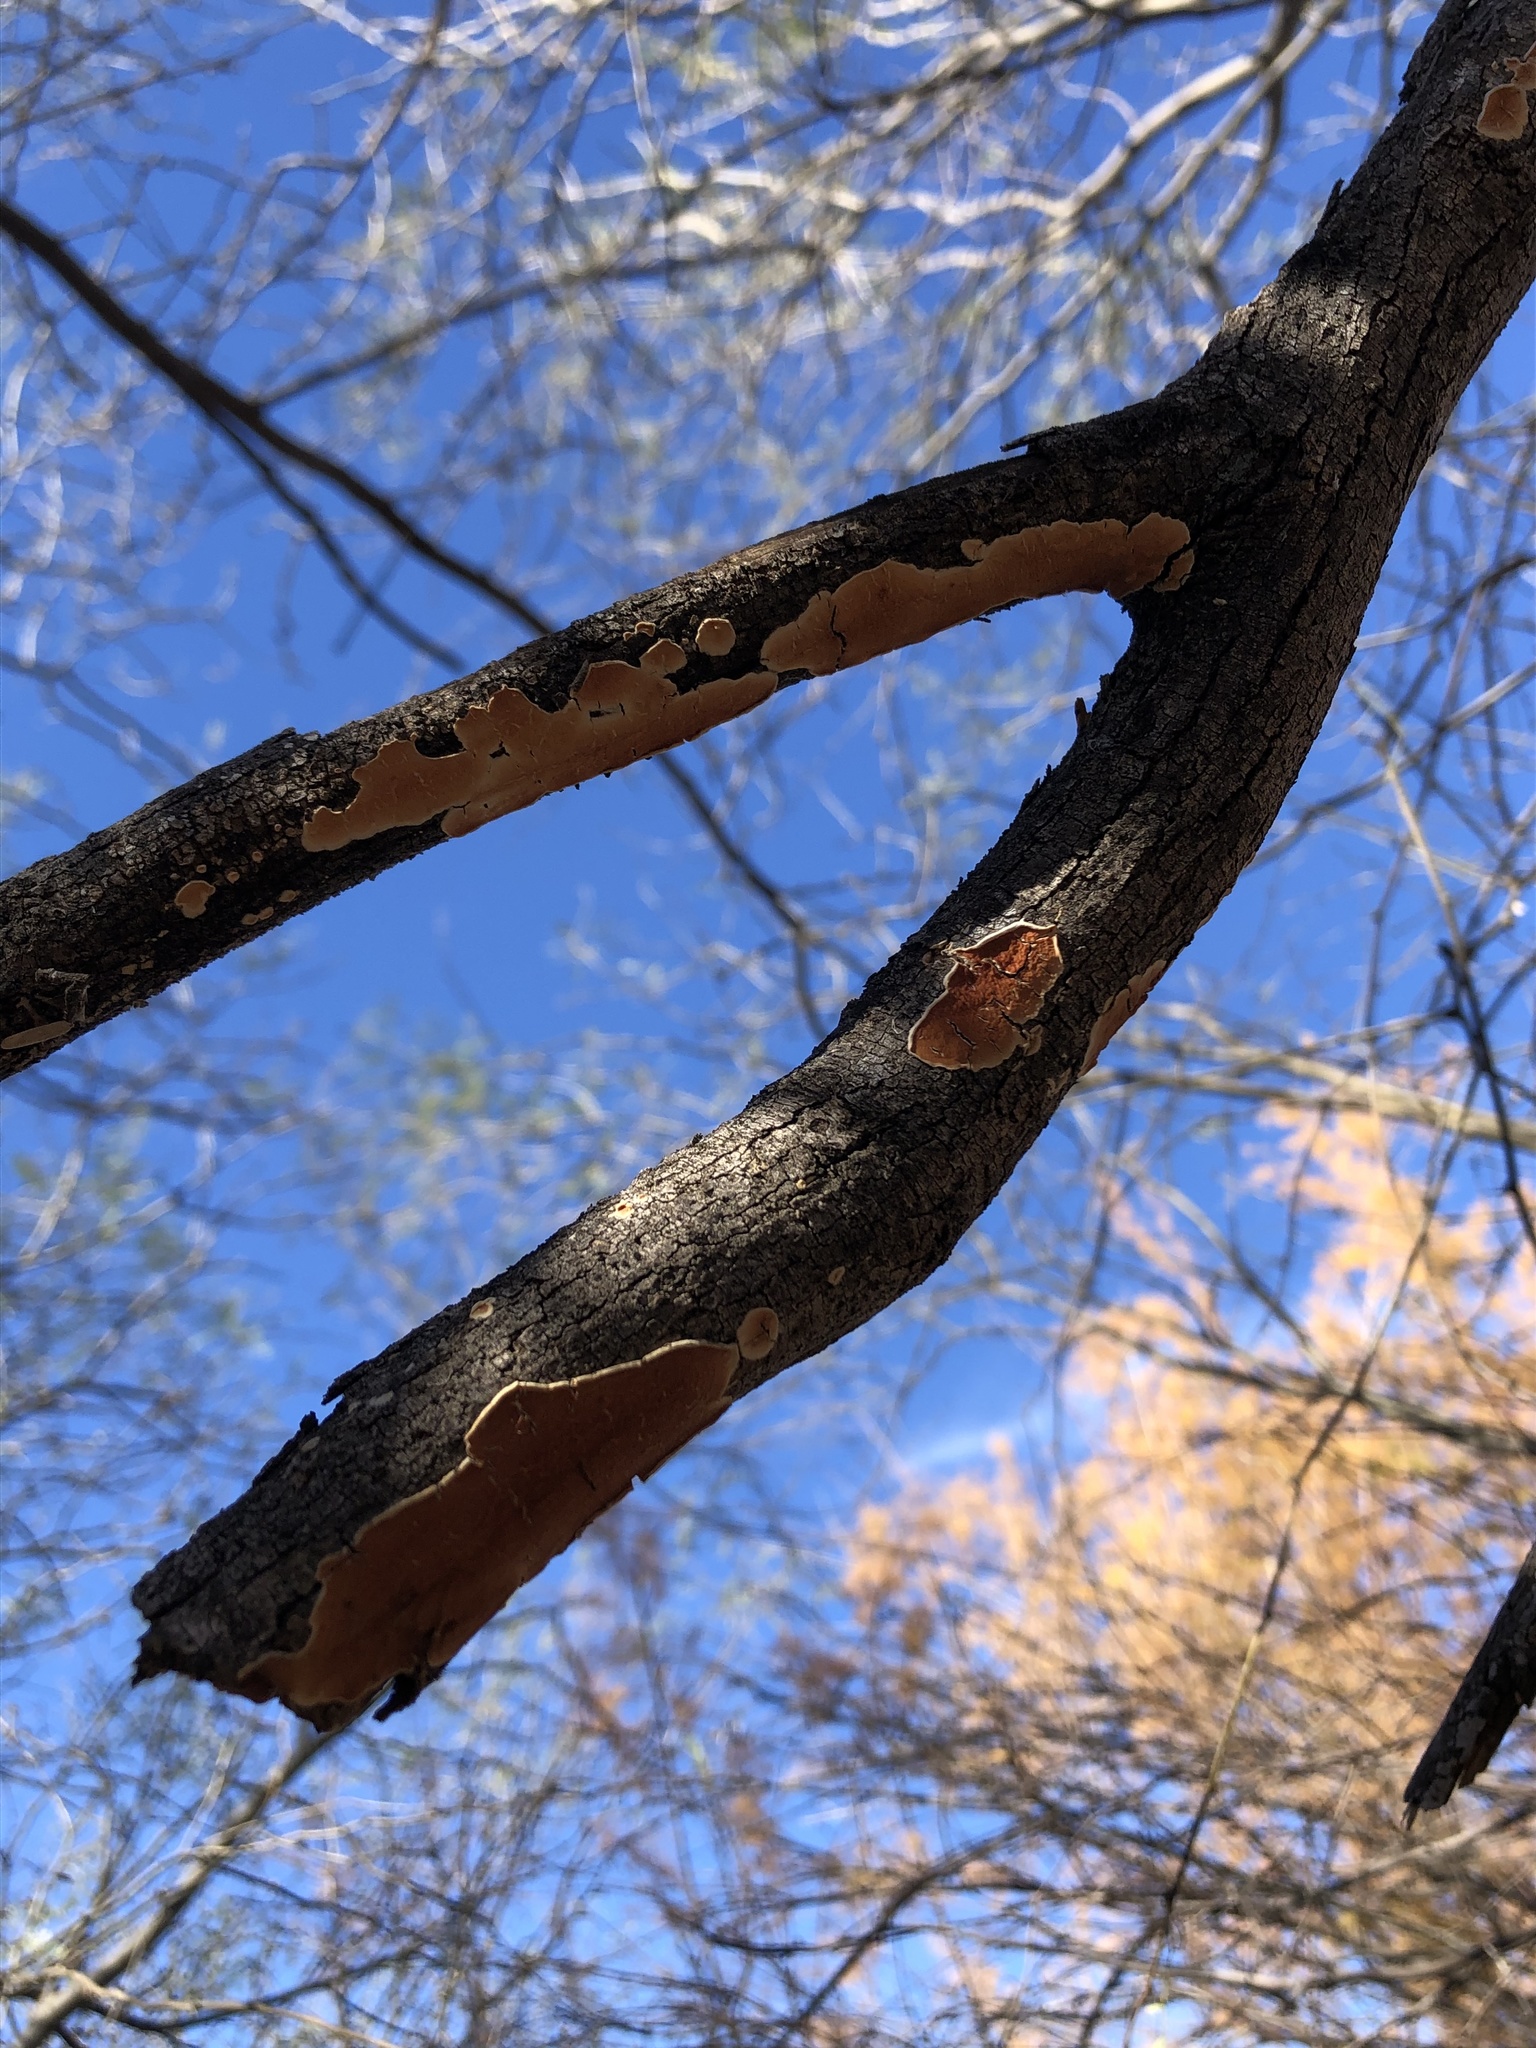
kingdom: Fungi
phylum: Basidiomycota
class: Agaricomycetes
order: Polyporales
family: Irpicaceae
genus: Byssomerulius
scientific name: Byssomerulius corium
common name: Netted crust
